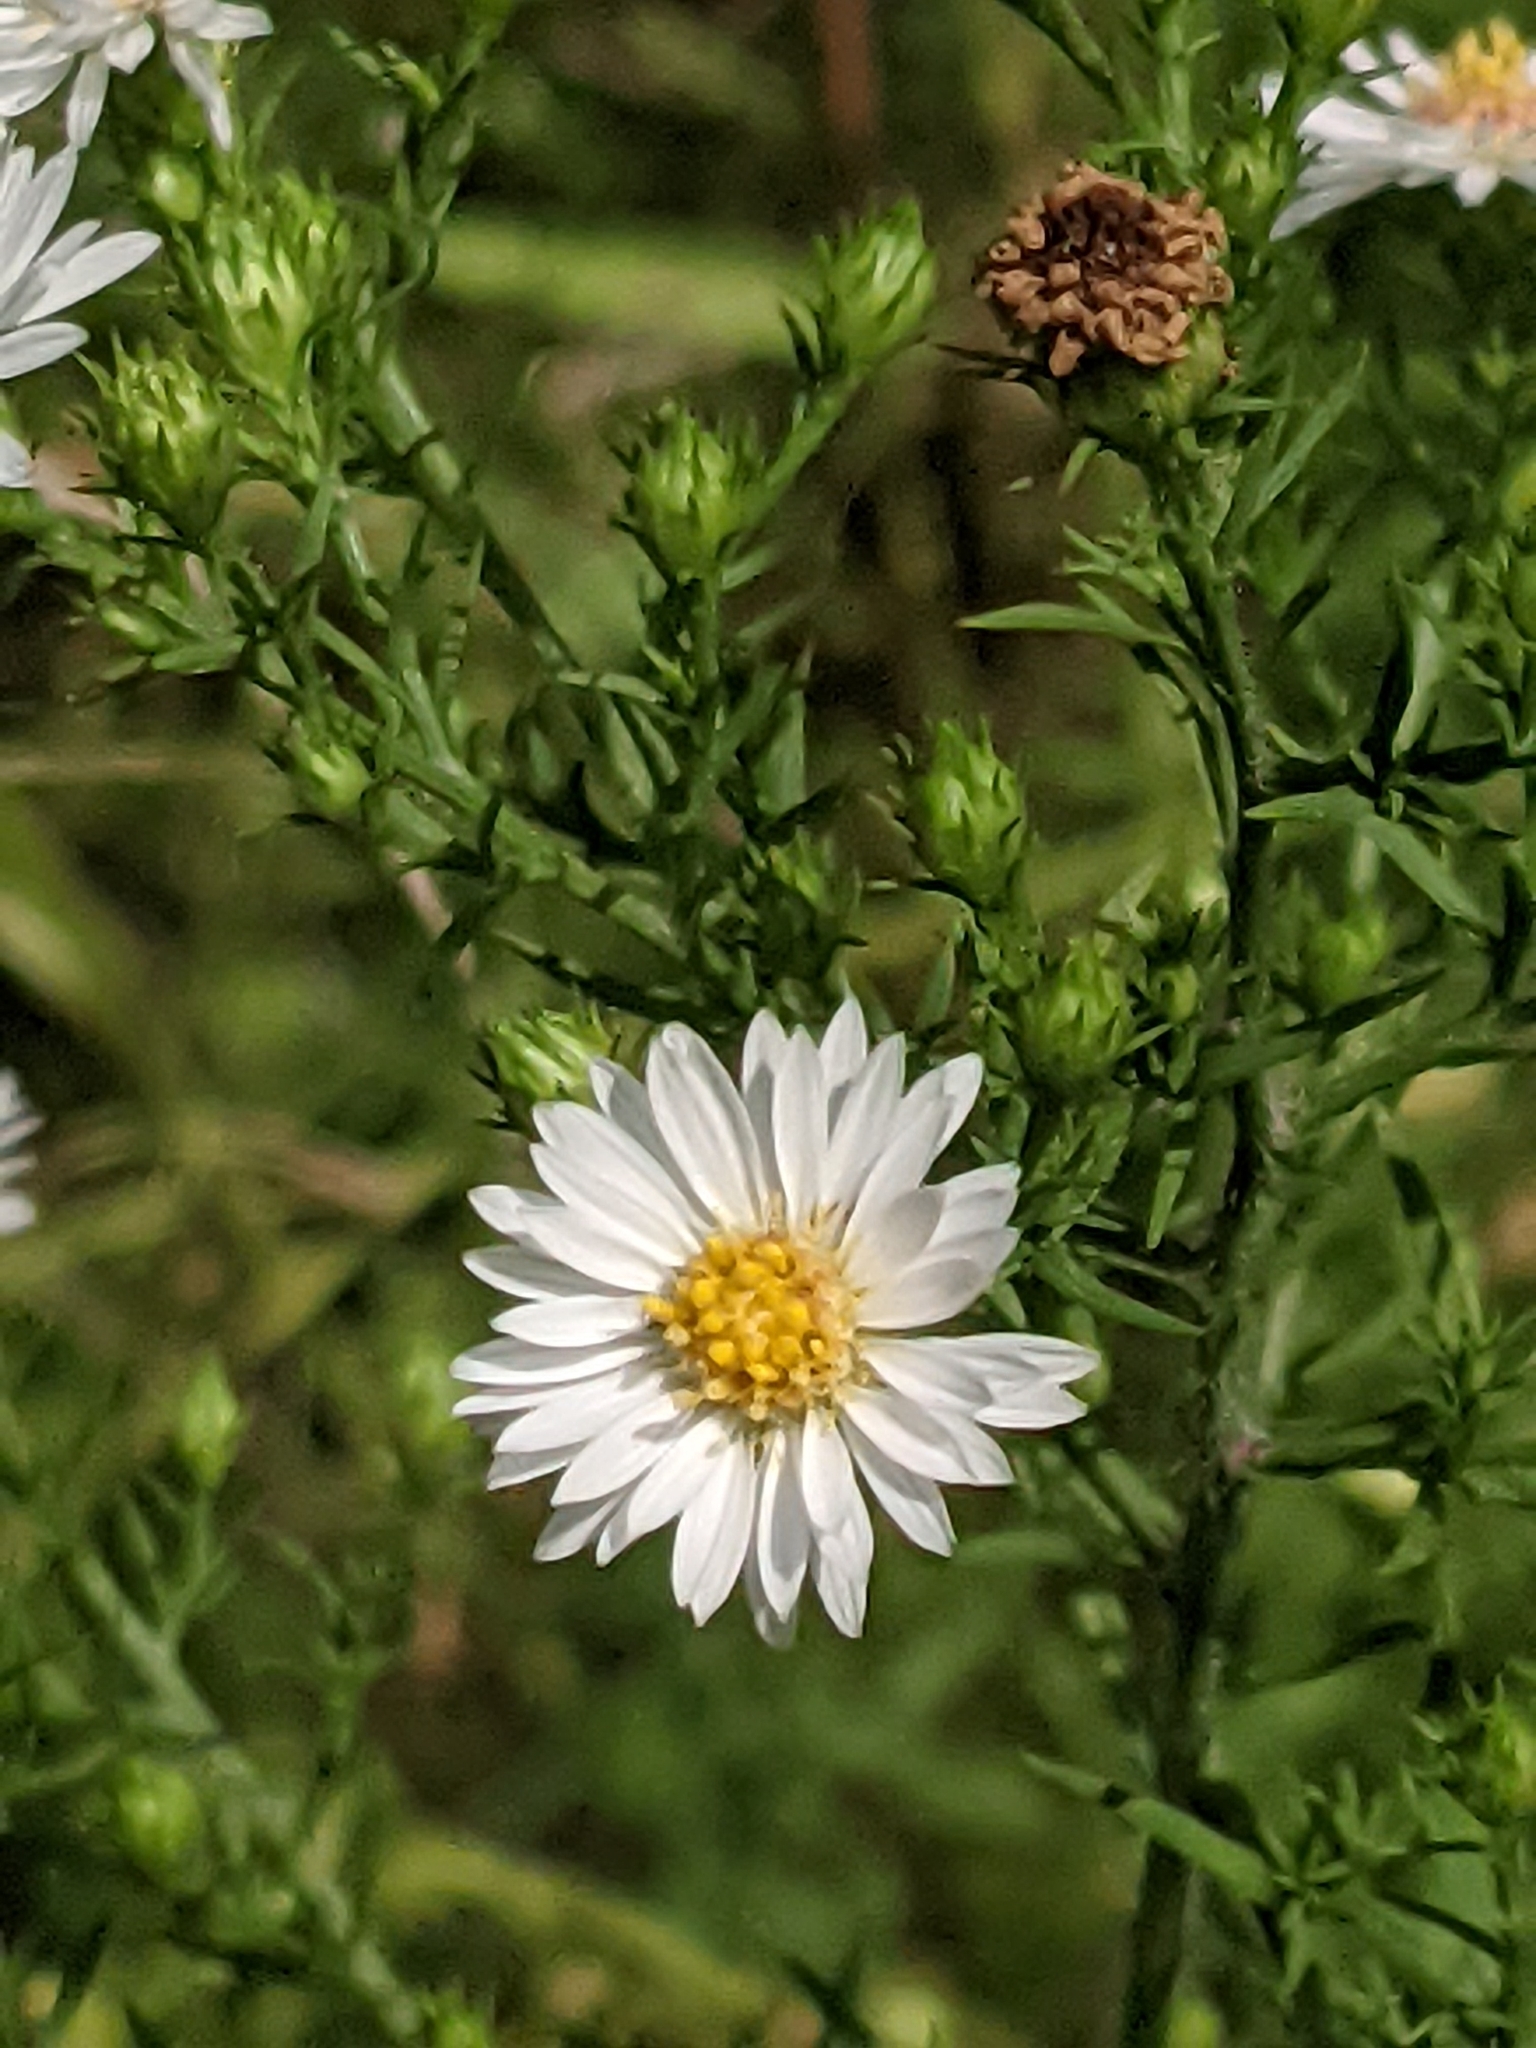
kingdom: Plantae
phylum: Tracheophyta
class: Magnoliopsida
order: Asterales
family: Asteraceae
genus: Symphyotrichum
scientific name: Symphyotrichum pilosum
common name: Awl aster
